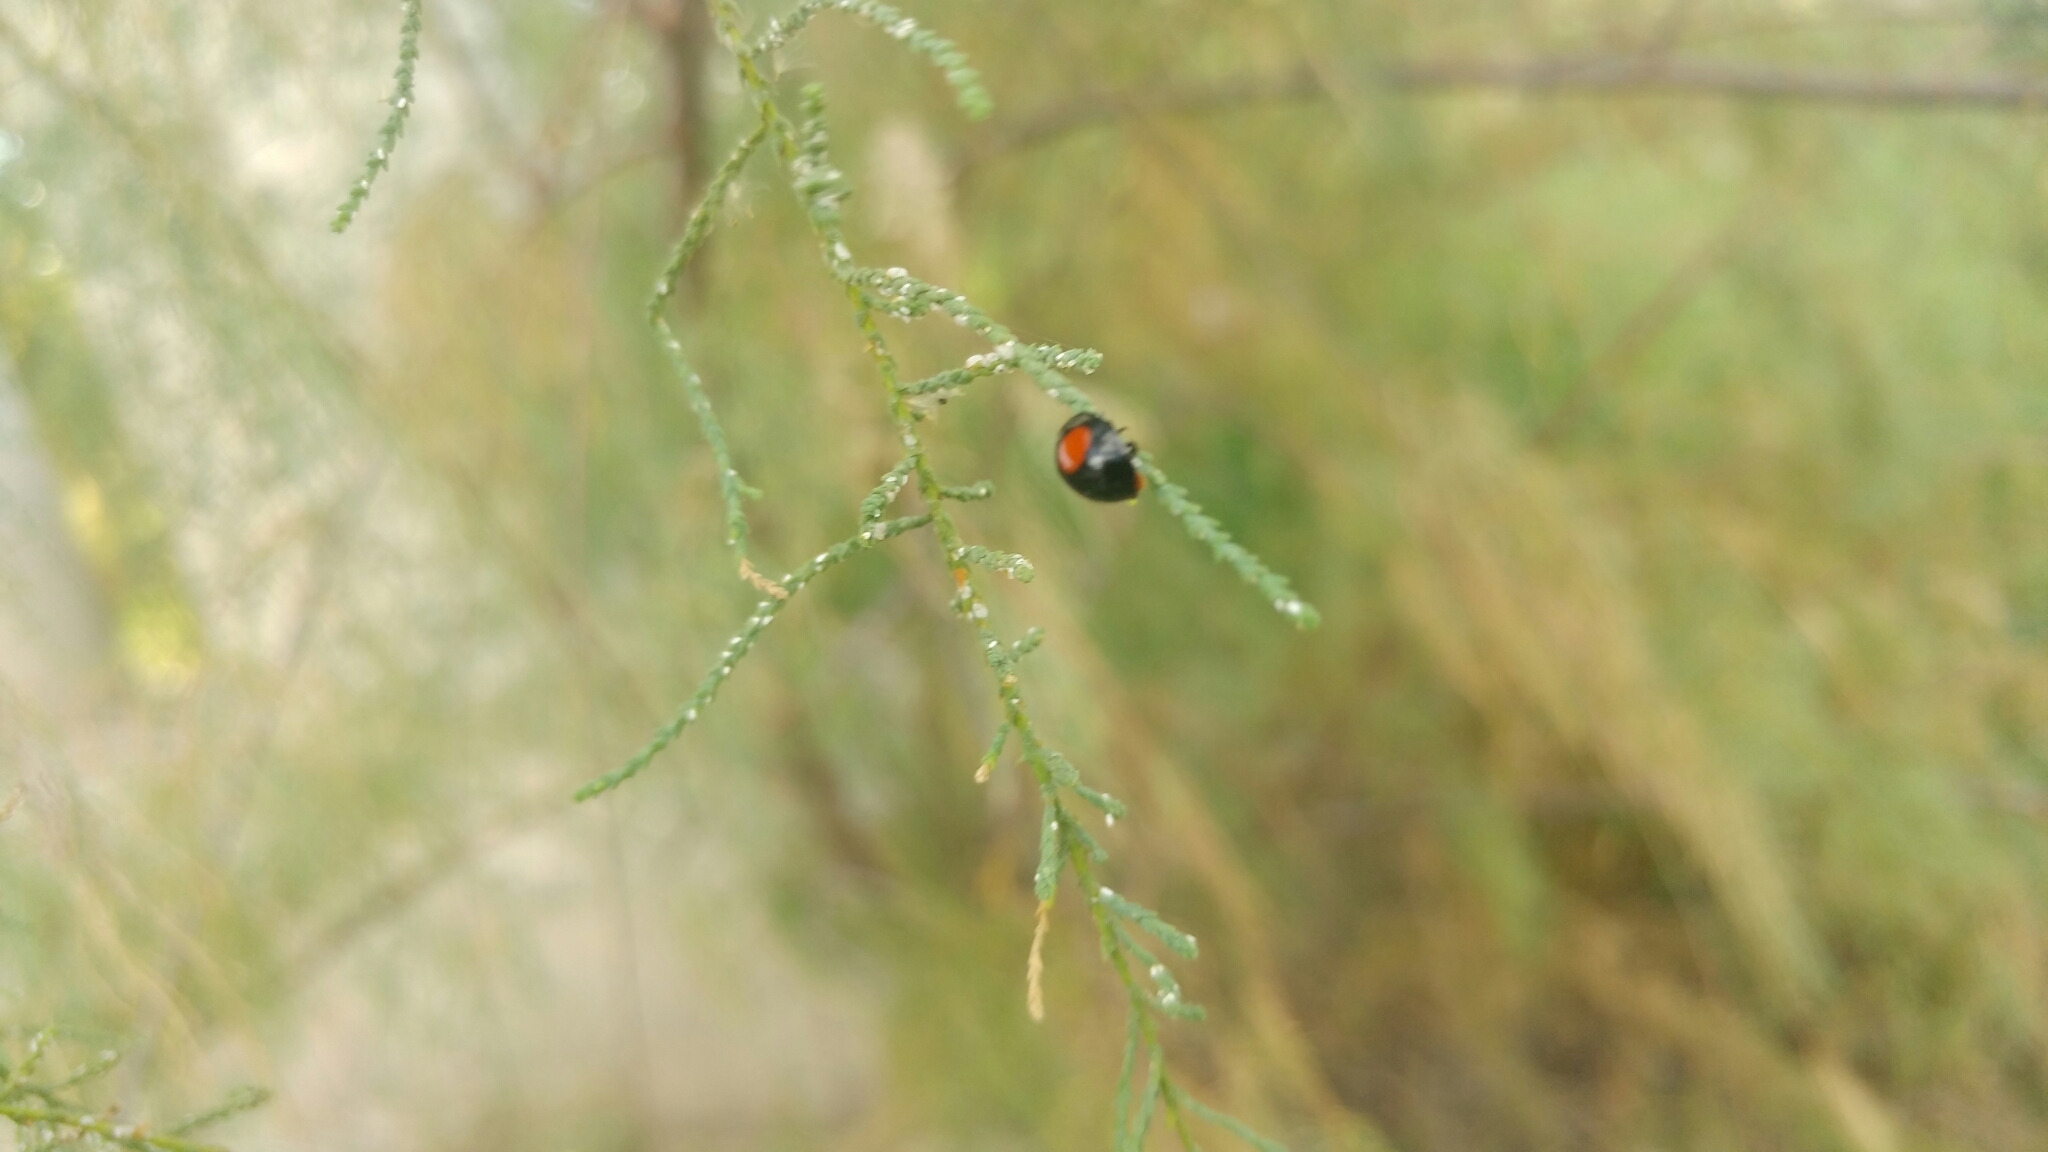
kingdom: Animalia
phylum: Arthropoda
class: Insecta
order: Coleoptera
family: Coccinellidae
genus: Chilocorus
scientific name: Chilocorus cacti
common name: Cactus lady beetle
